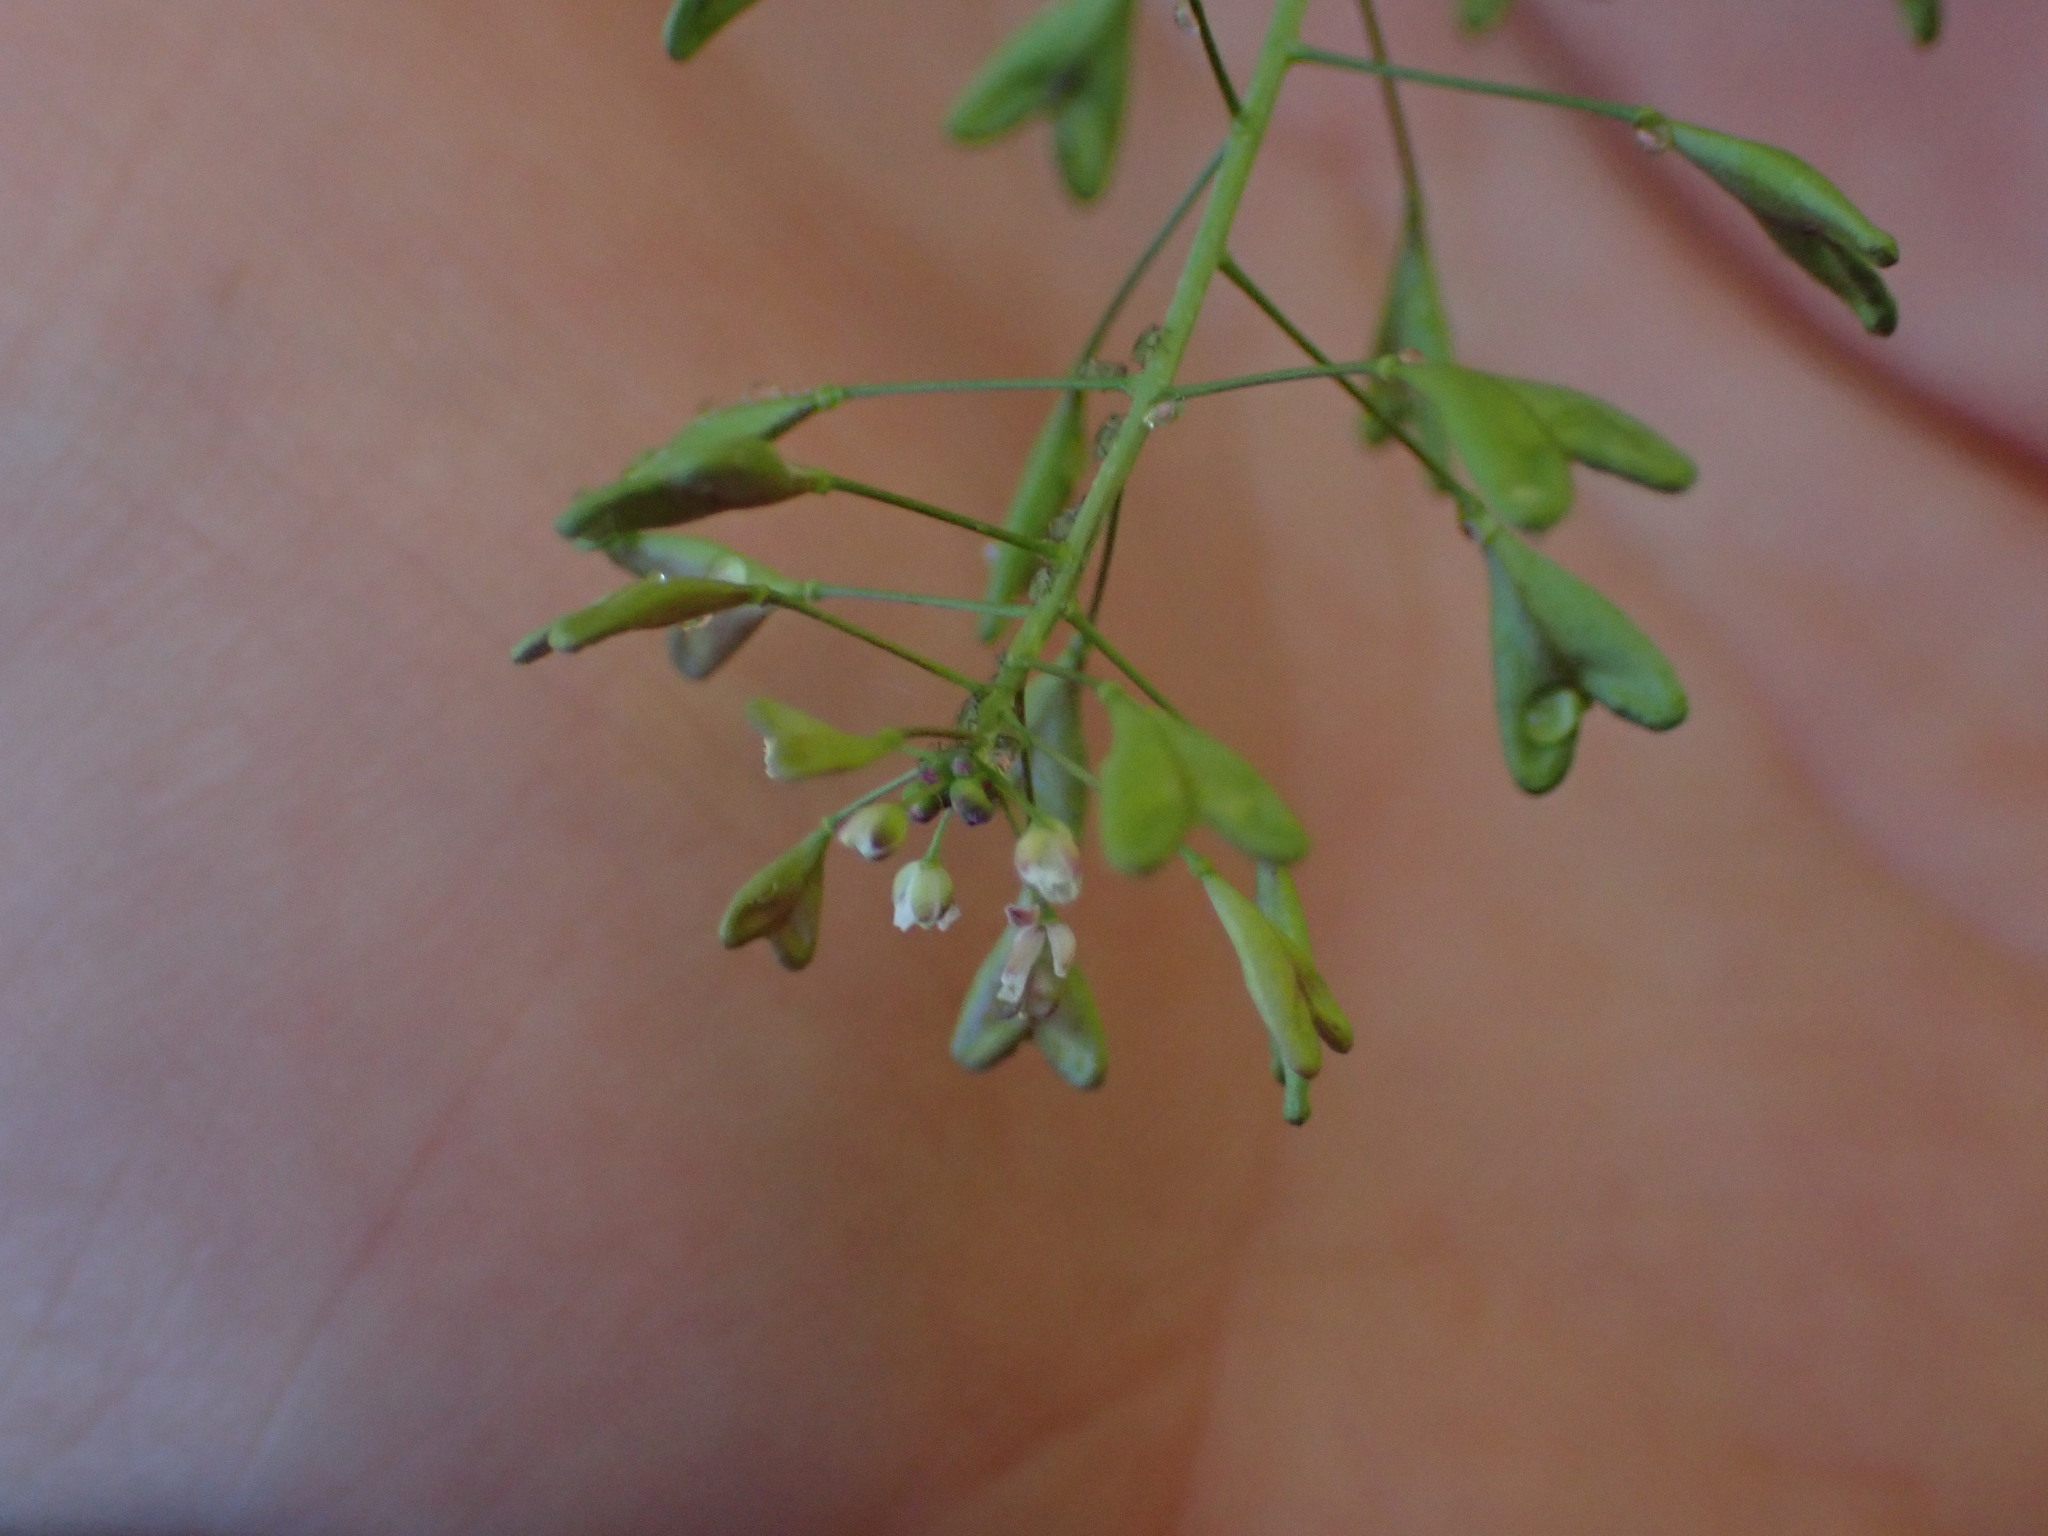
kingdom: Plantae
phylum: Tracheophyta
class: Magnoliopsida
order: Brassicales
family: Brassicaceae
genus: Capsella
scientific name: Capsella bursa-pastoris
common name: Shepherd's purse
